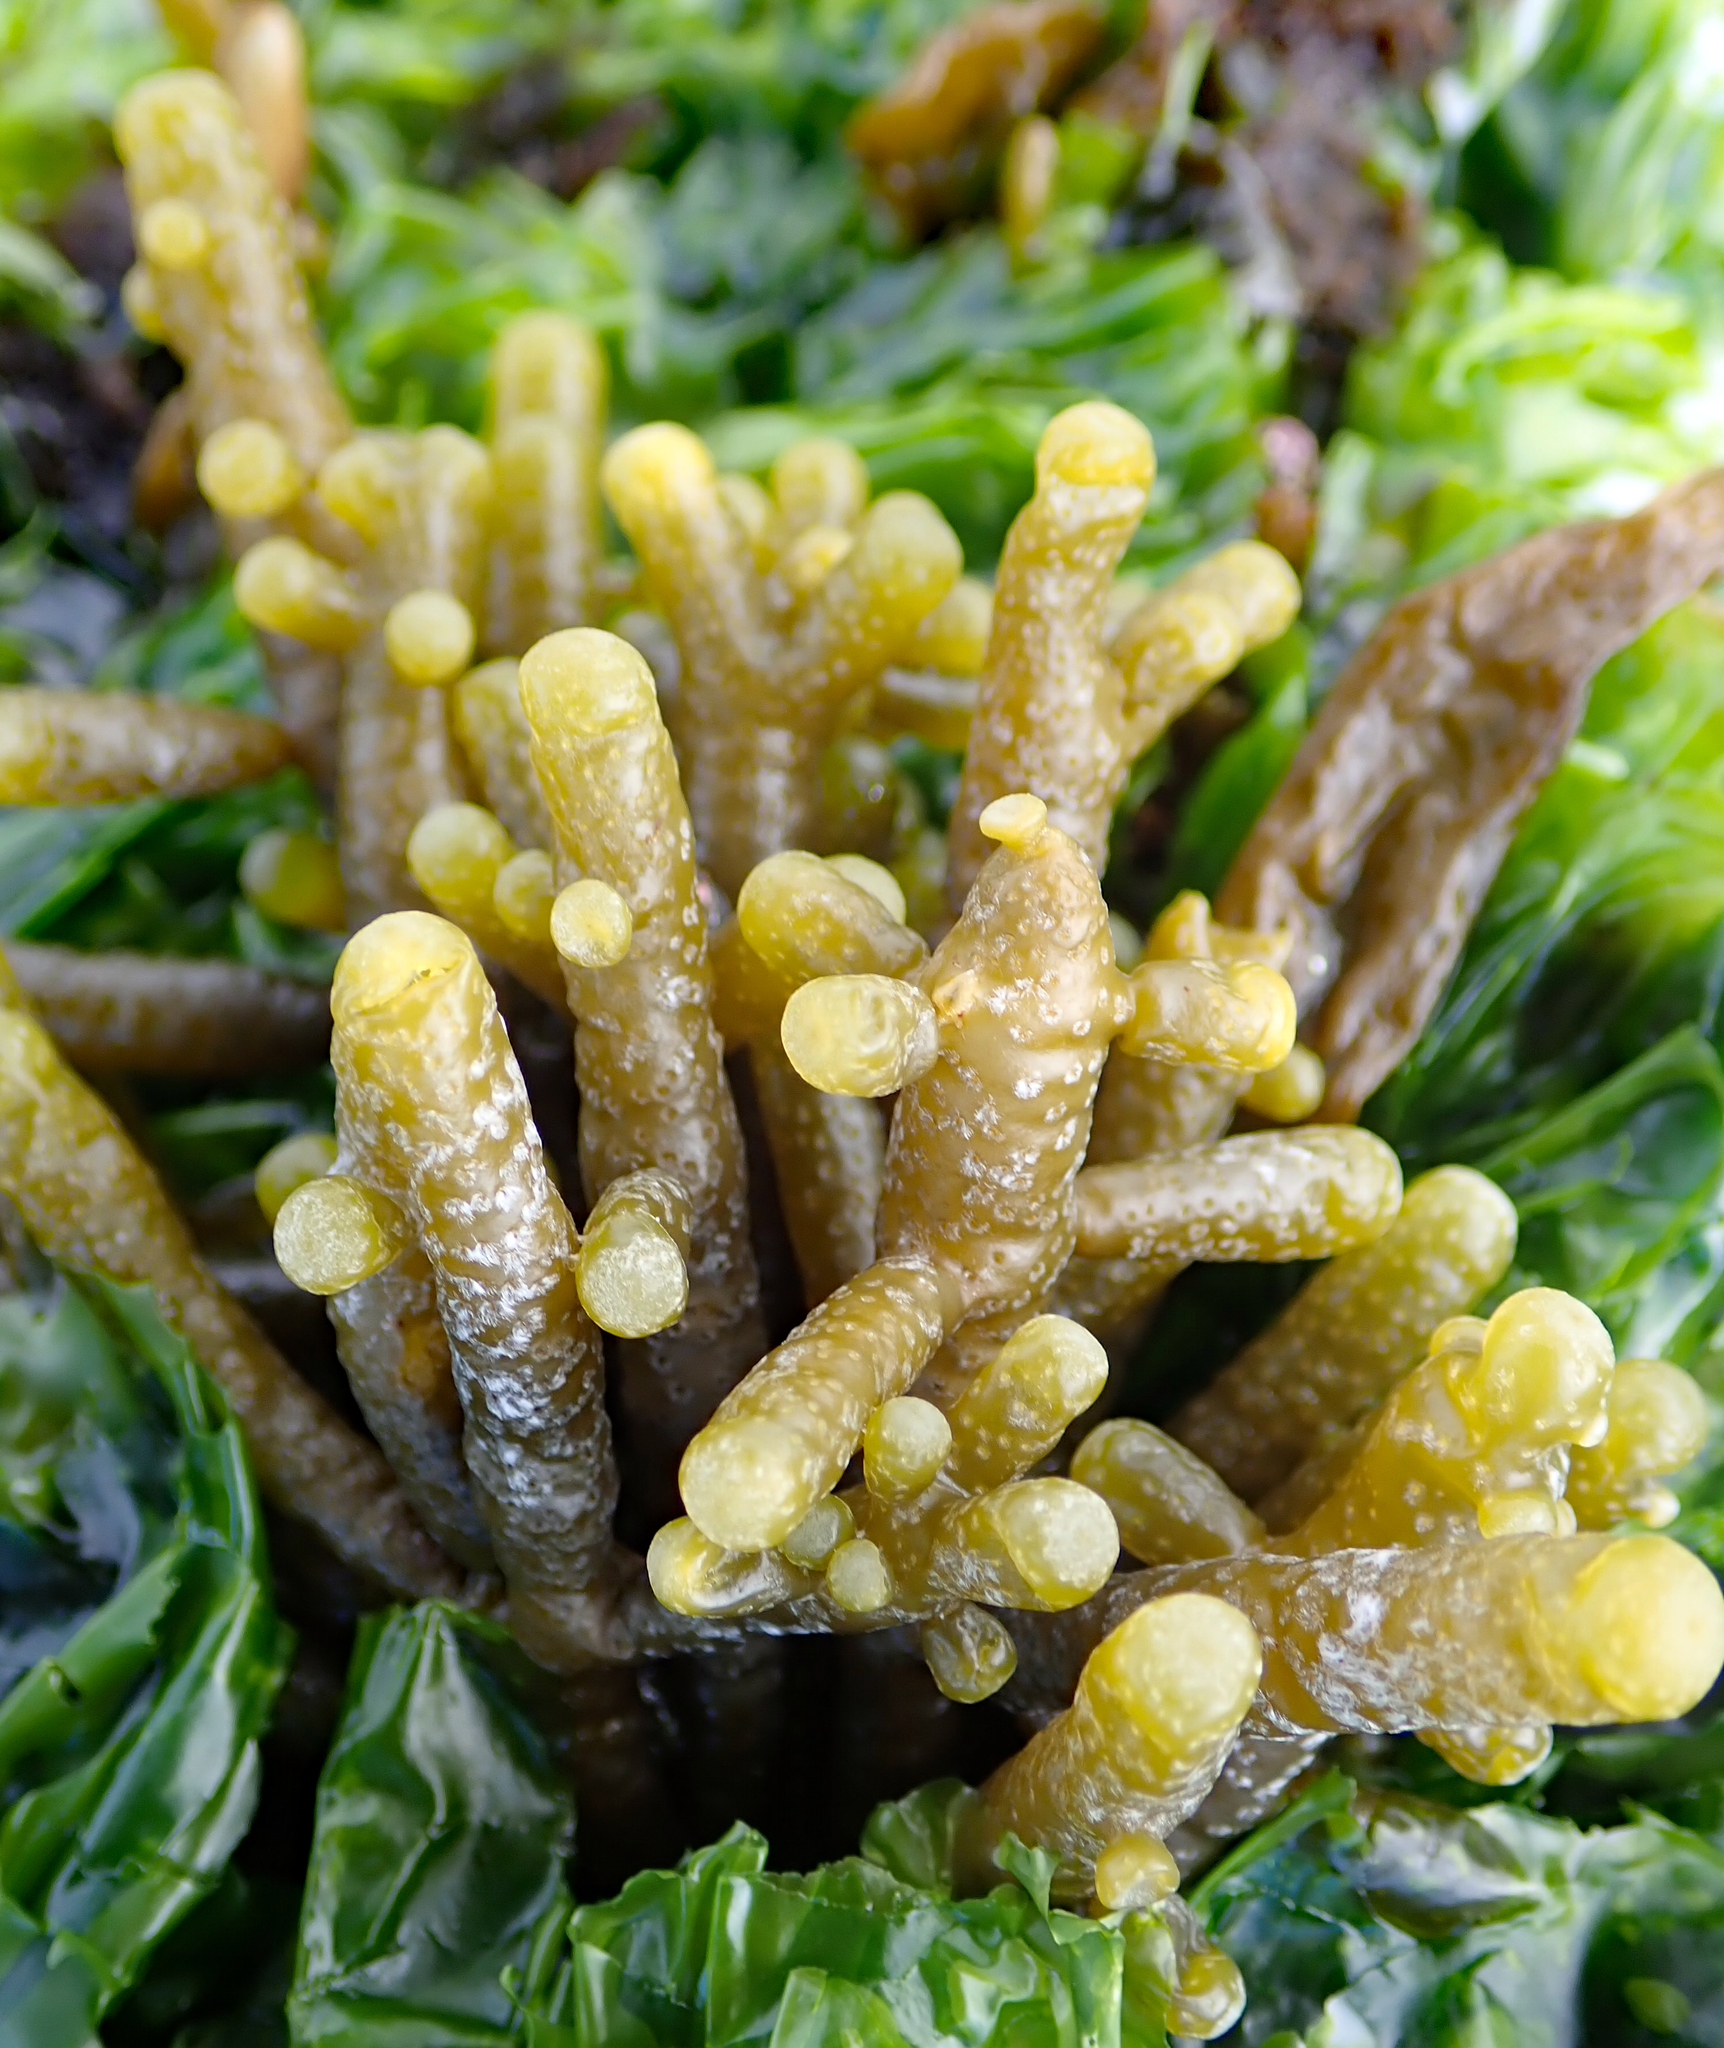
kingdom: Chromista
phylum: Ochrophyta
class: Phaeophyceae
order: Scytothamnales
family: Splachnidiaceae
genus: Splachnidium
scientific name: Splachnidium rugosum
